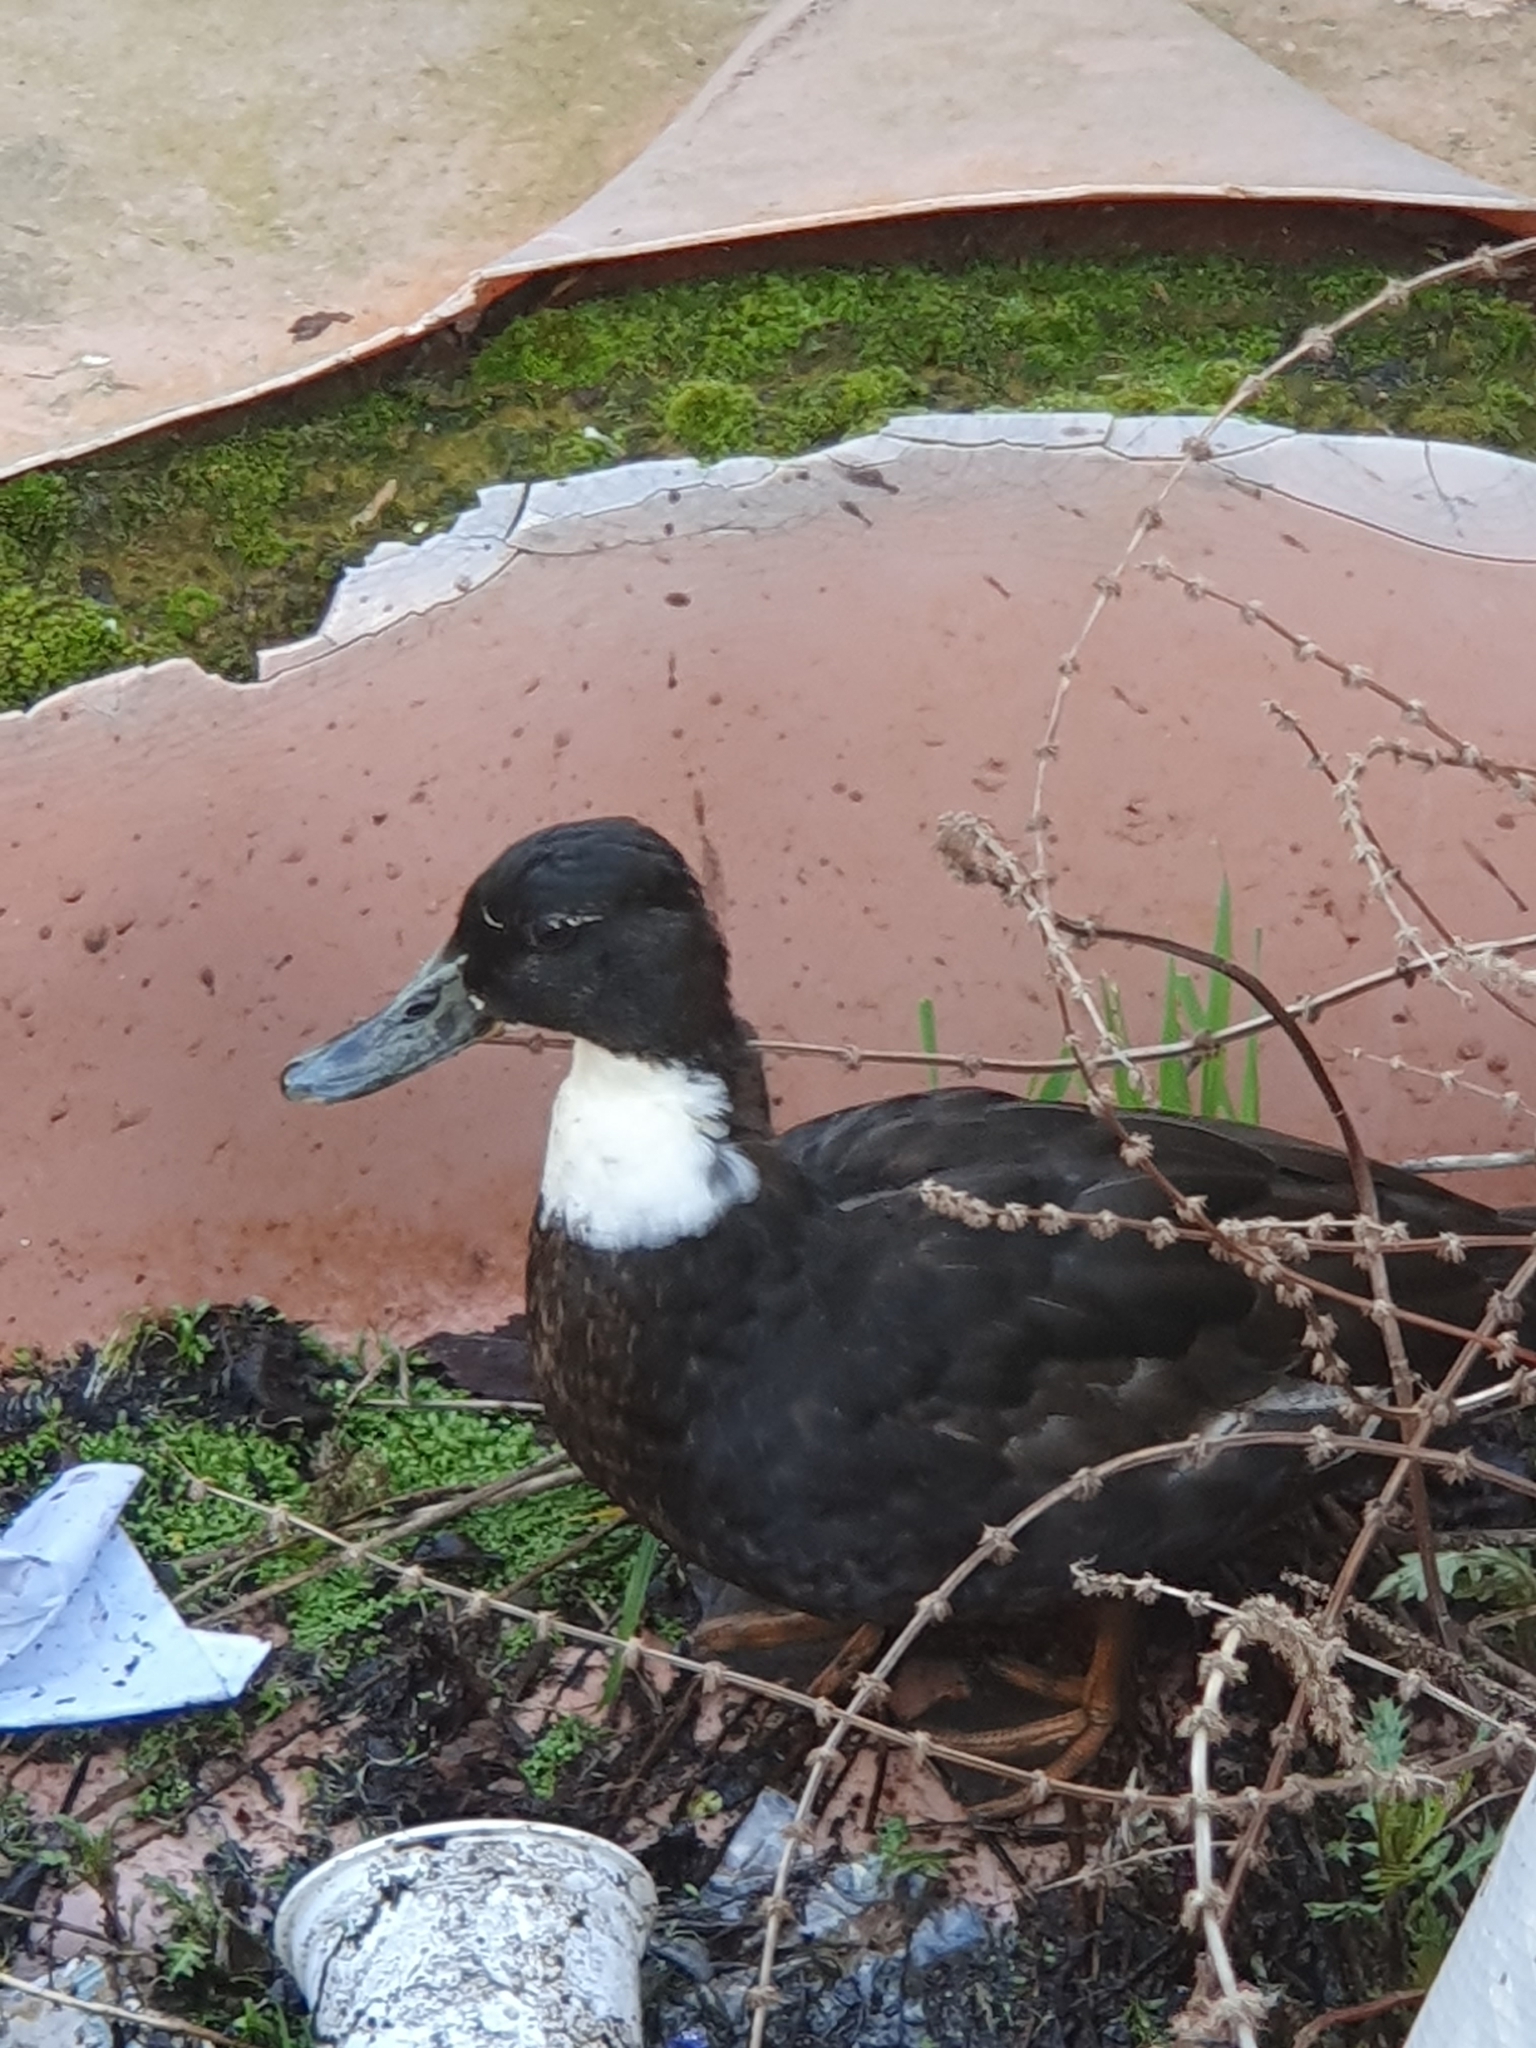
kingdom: Animalia
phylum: Chordata
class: Aves
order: Anseriformes
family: Anatidae
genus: Anas
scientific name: Anas platyrhynchos
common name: Mallard
